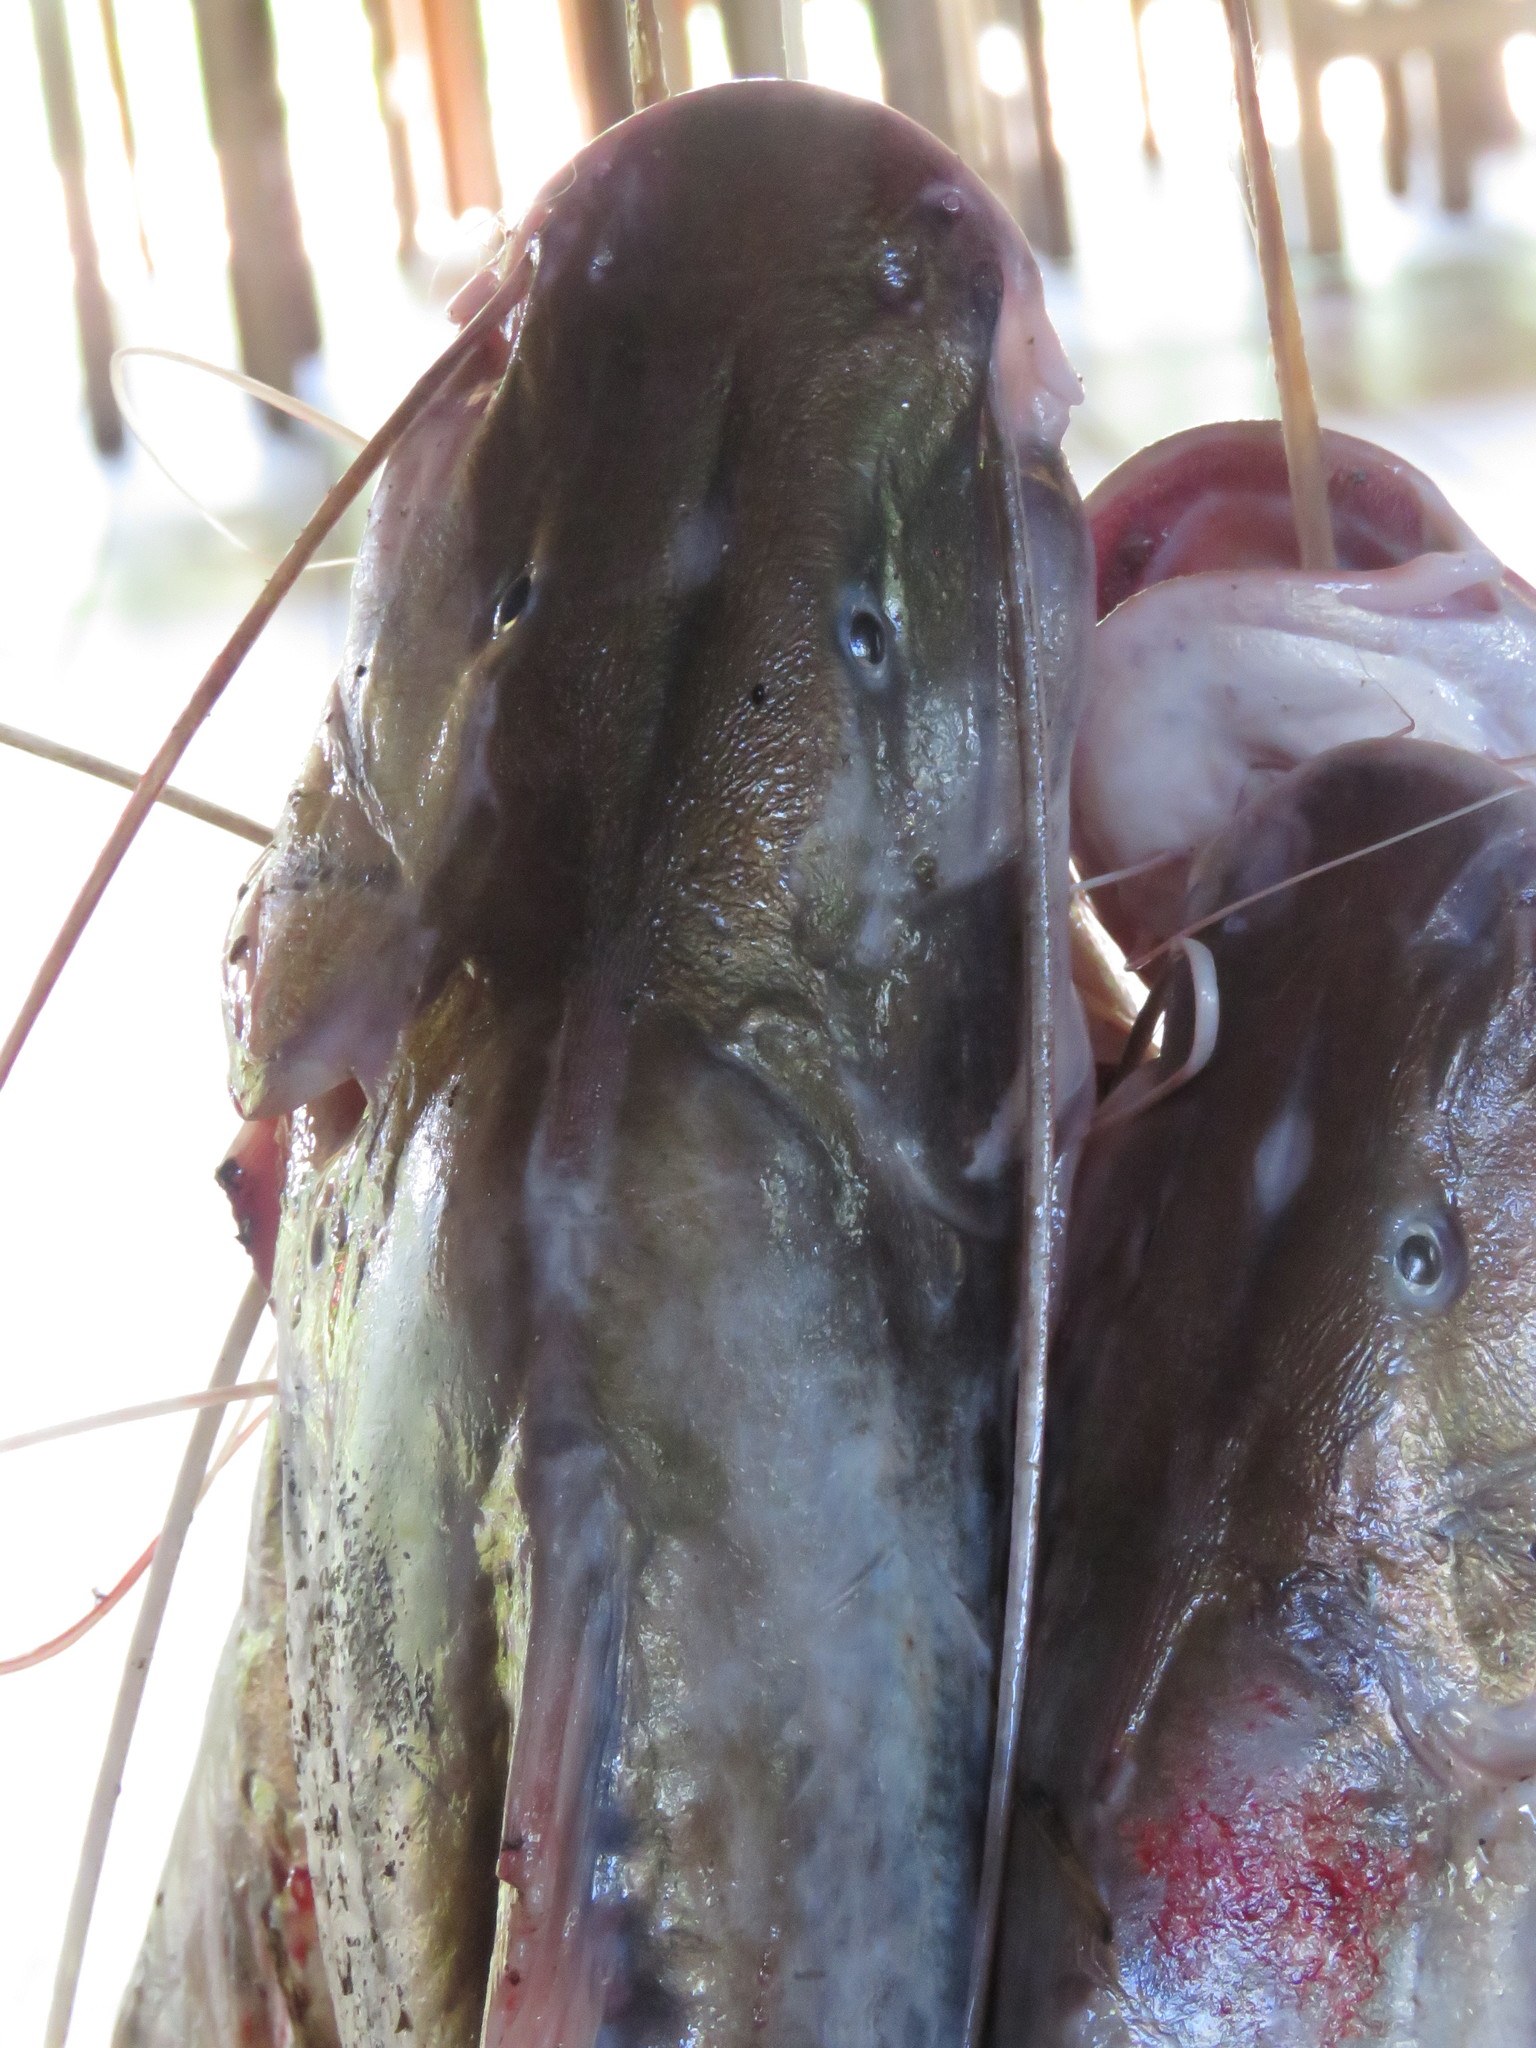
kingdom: Animalia
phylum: Chordata
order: Siluriformes
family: Pimelodidae
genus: Brachyplatystoma
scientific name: Brachyplatystoma vaillantii
